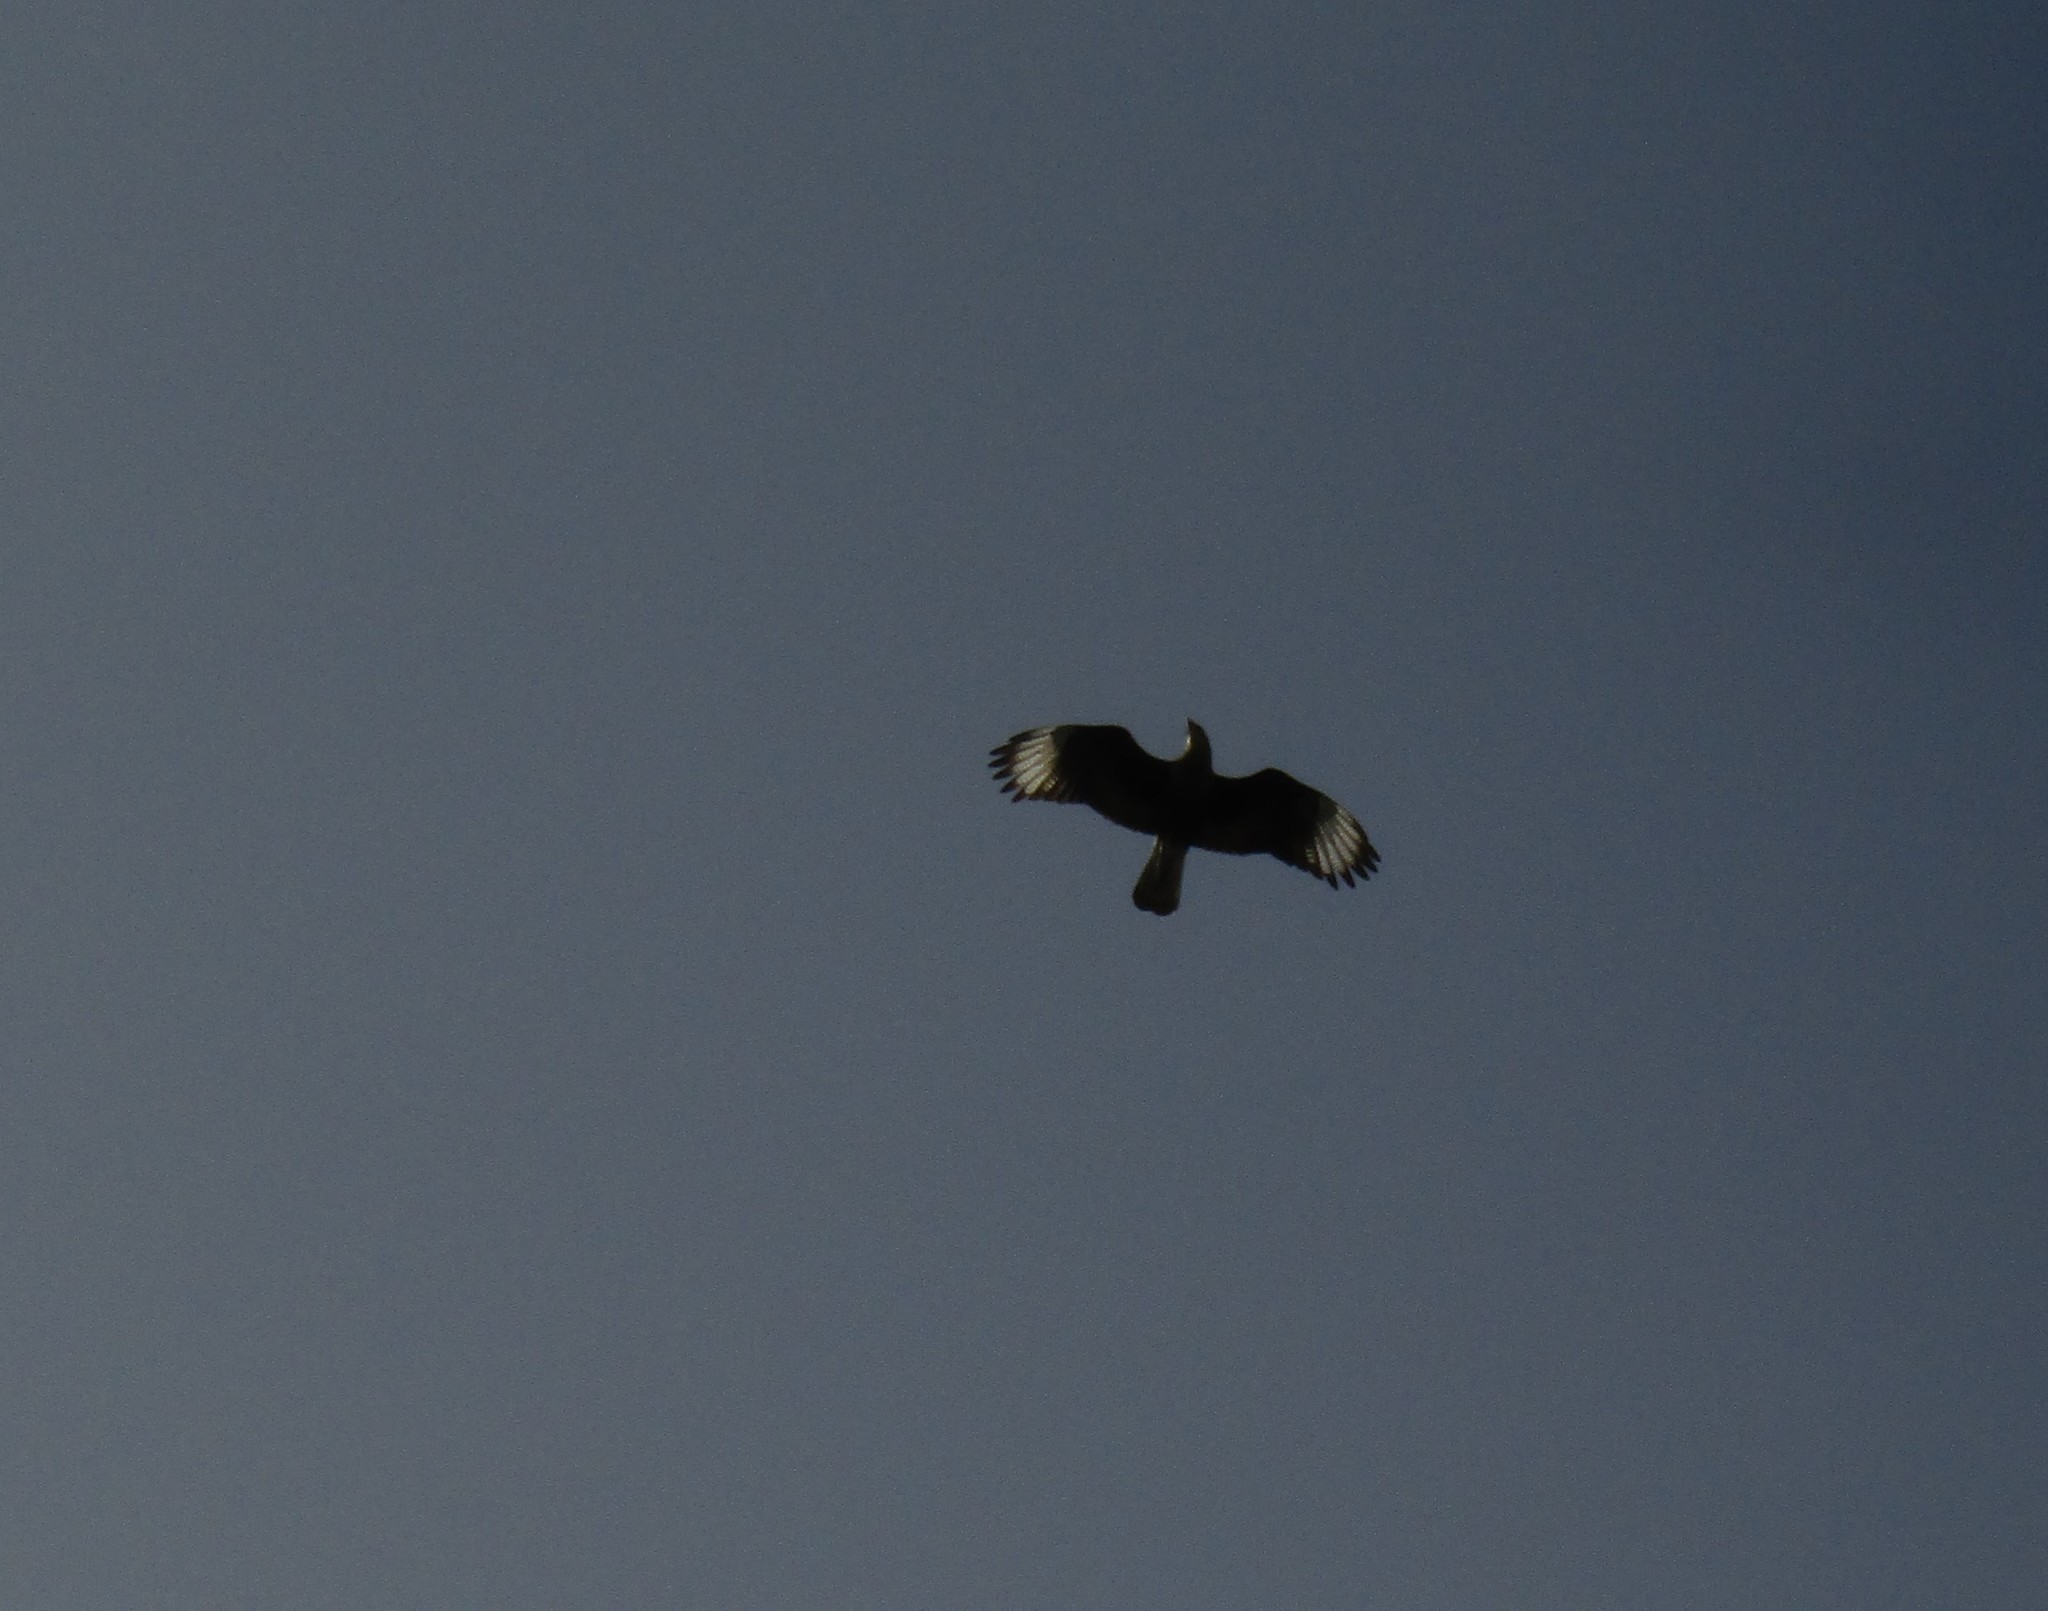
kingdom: Animalia
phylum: Chordata
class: Aves
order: Falconiformes
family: Falconidae
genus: Caracara
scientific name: Caracara plancus
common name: Southern caracara
